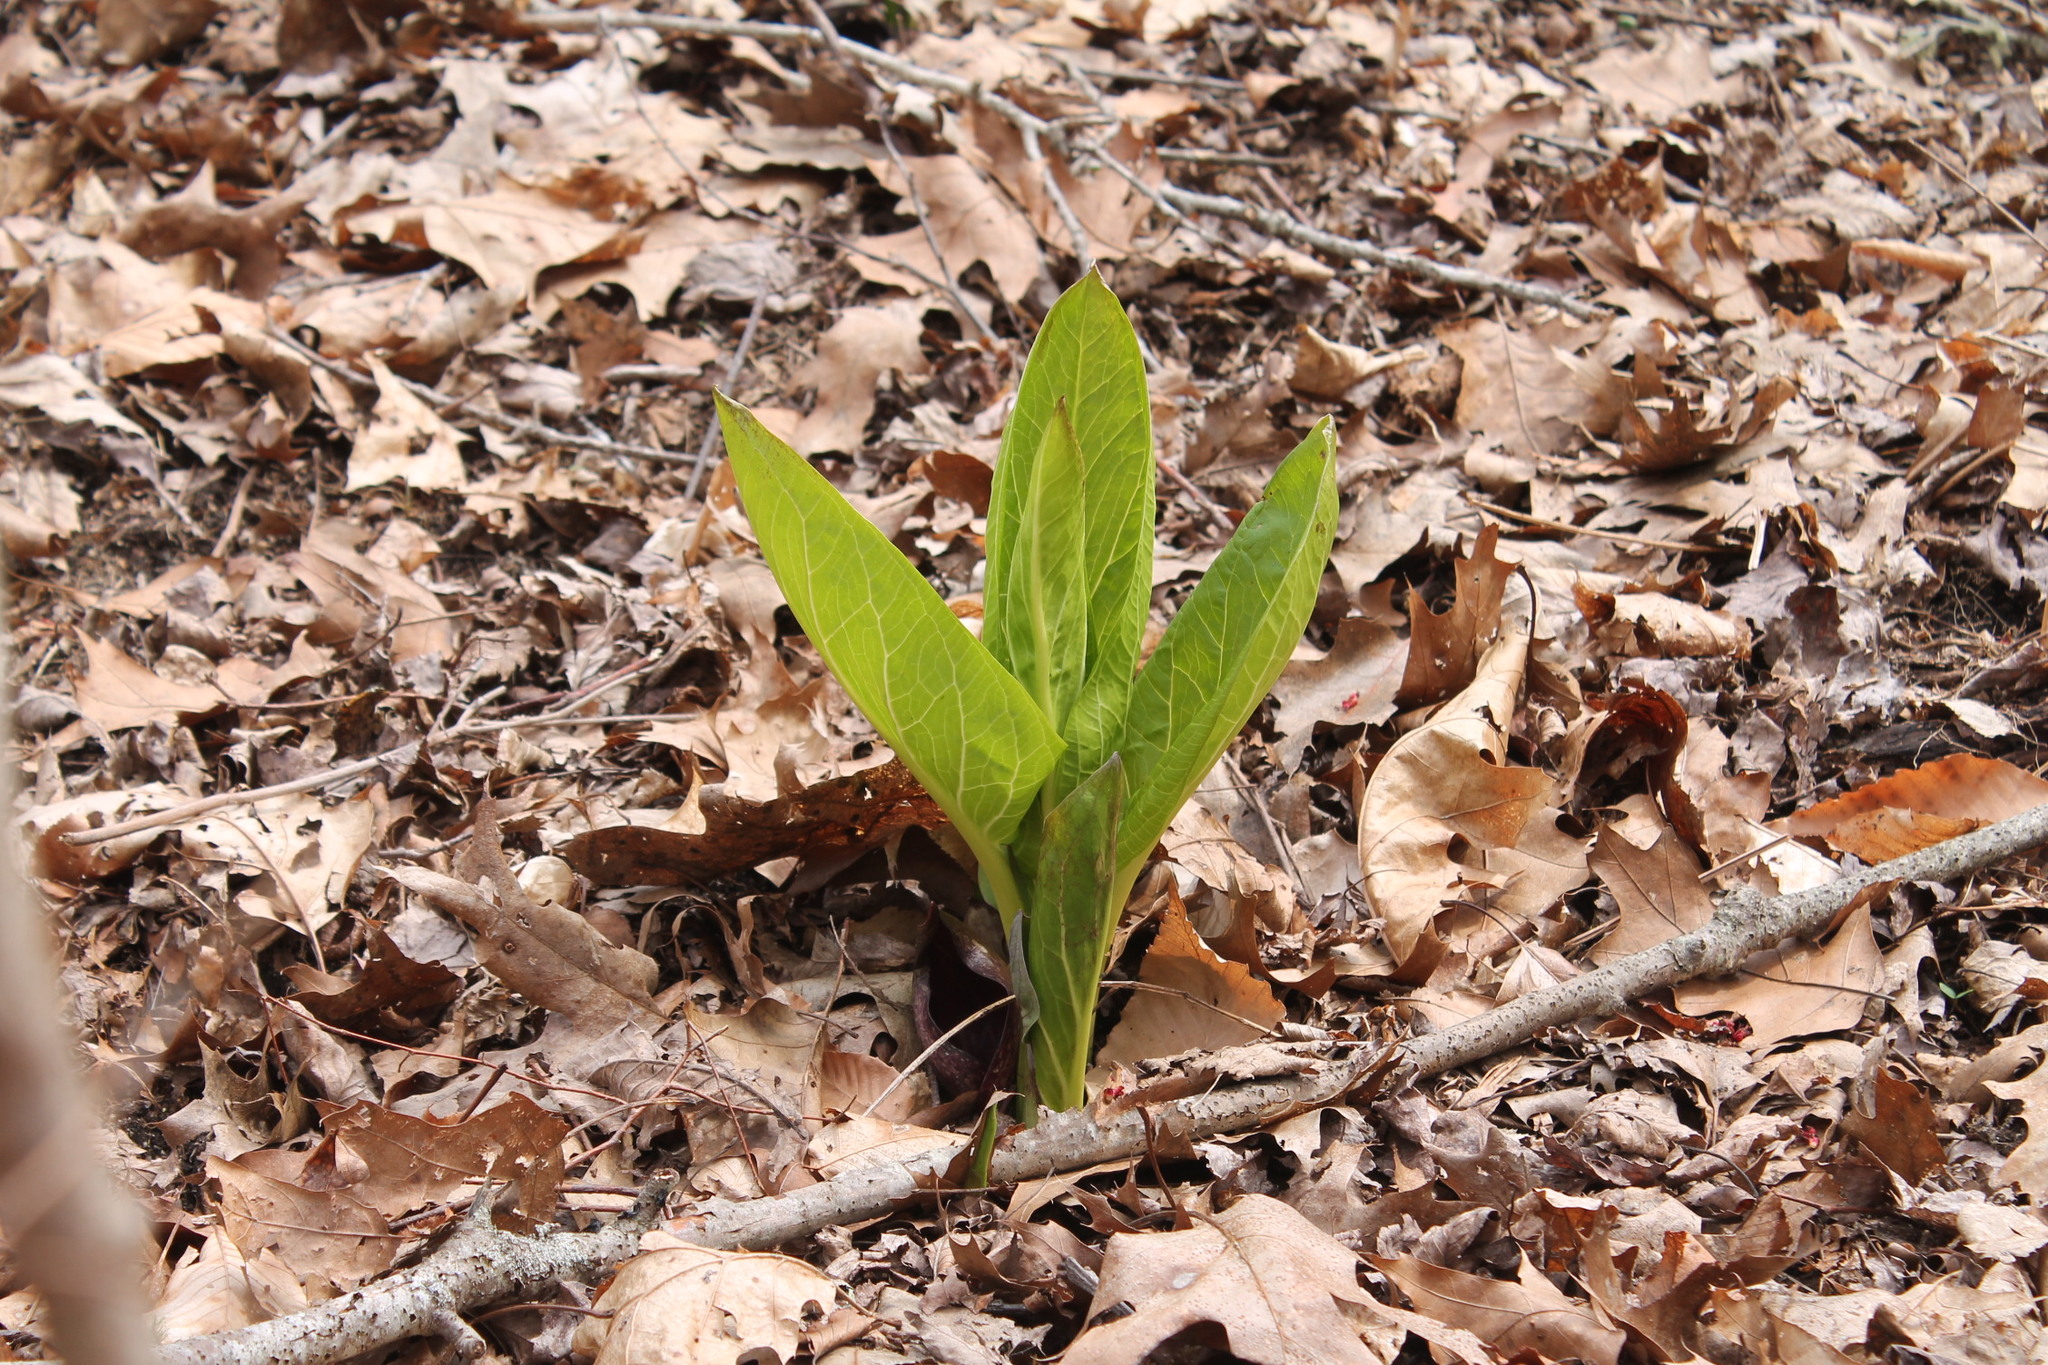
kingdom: Plantae
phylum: Tracheophyta
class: Liliopsida
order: Alismatales
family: Araceae
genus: Symplocarpus
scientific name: Symplocarpus foetidus
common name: Eastern skunk cabbage
